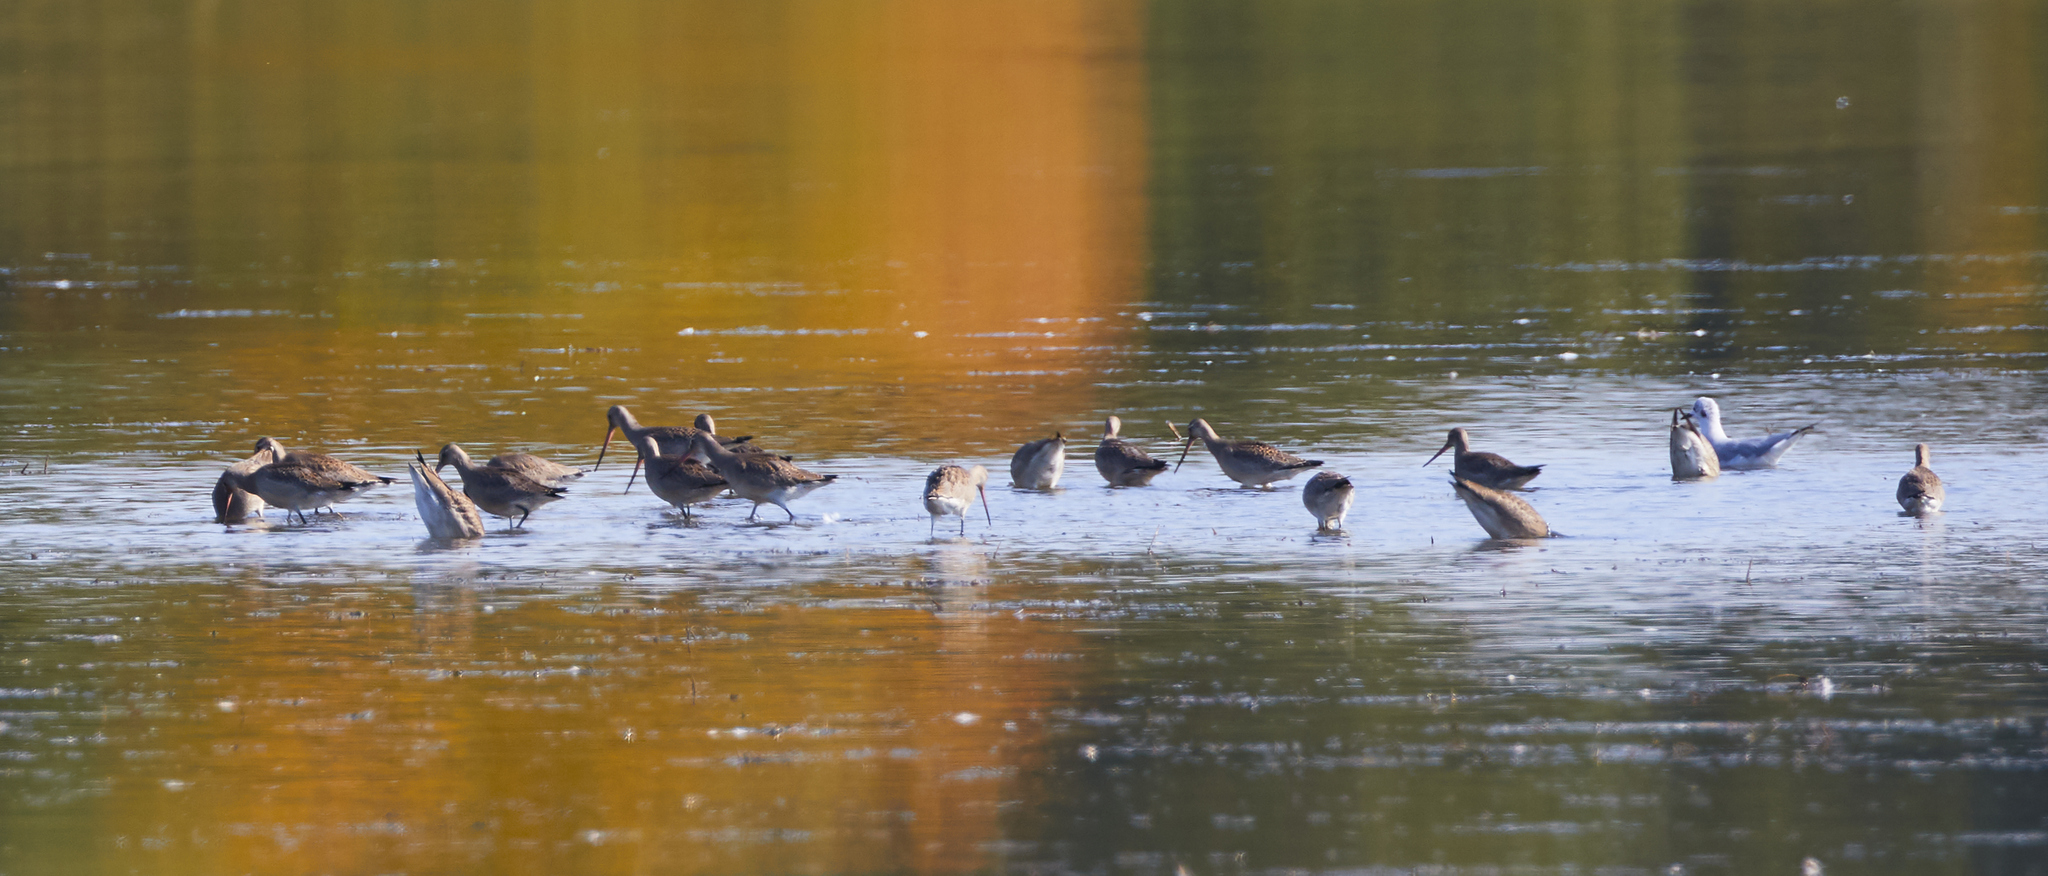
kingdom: Animalia
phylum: Chordata
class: Aves
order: Charadriiformes
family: Scolopacidae
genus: Limosa
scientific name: Limosa haemastica
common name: Hudsonian godwit
